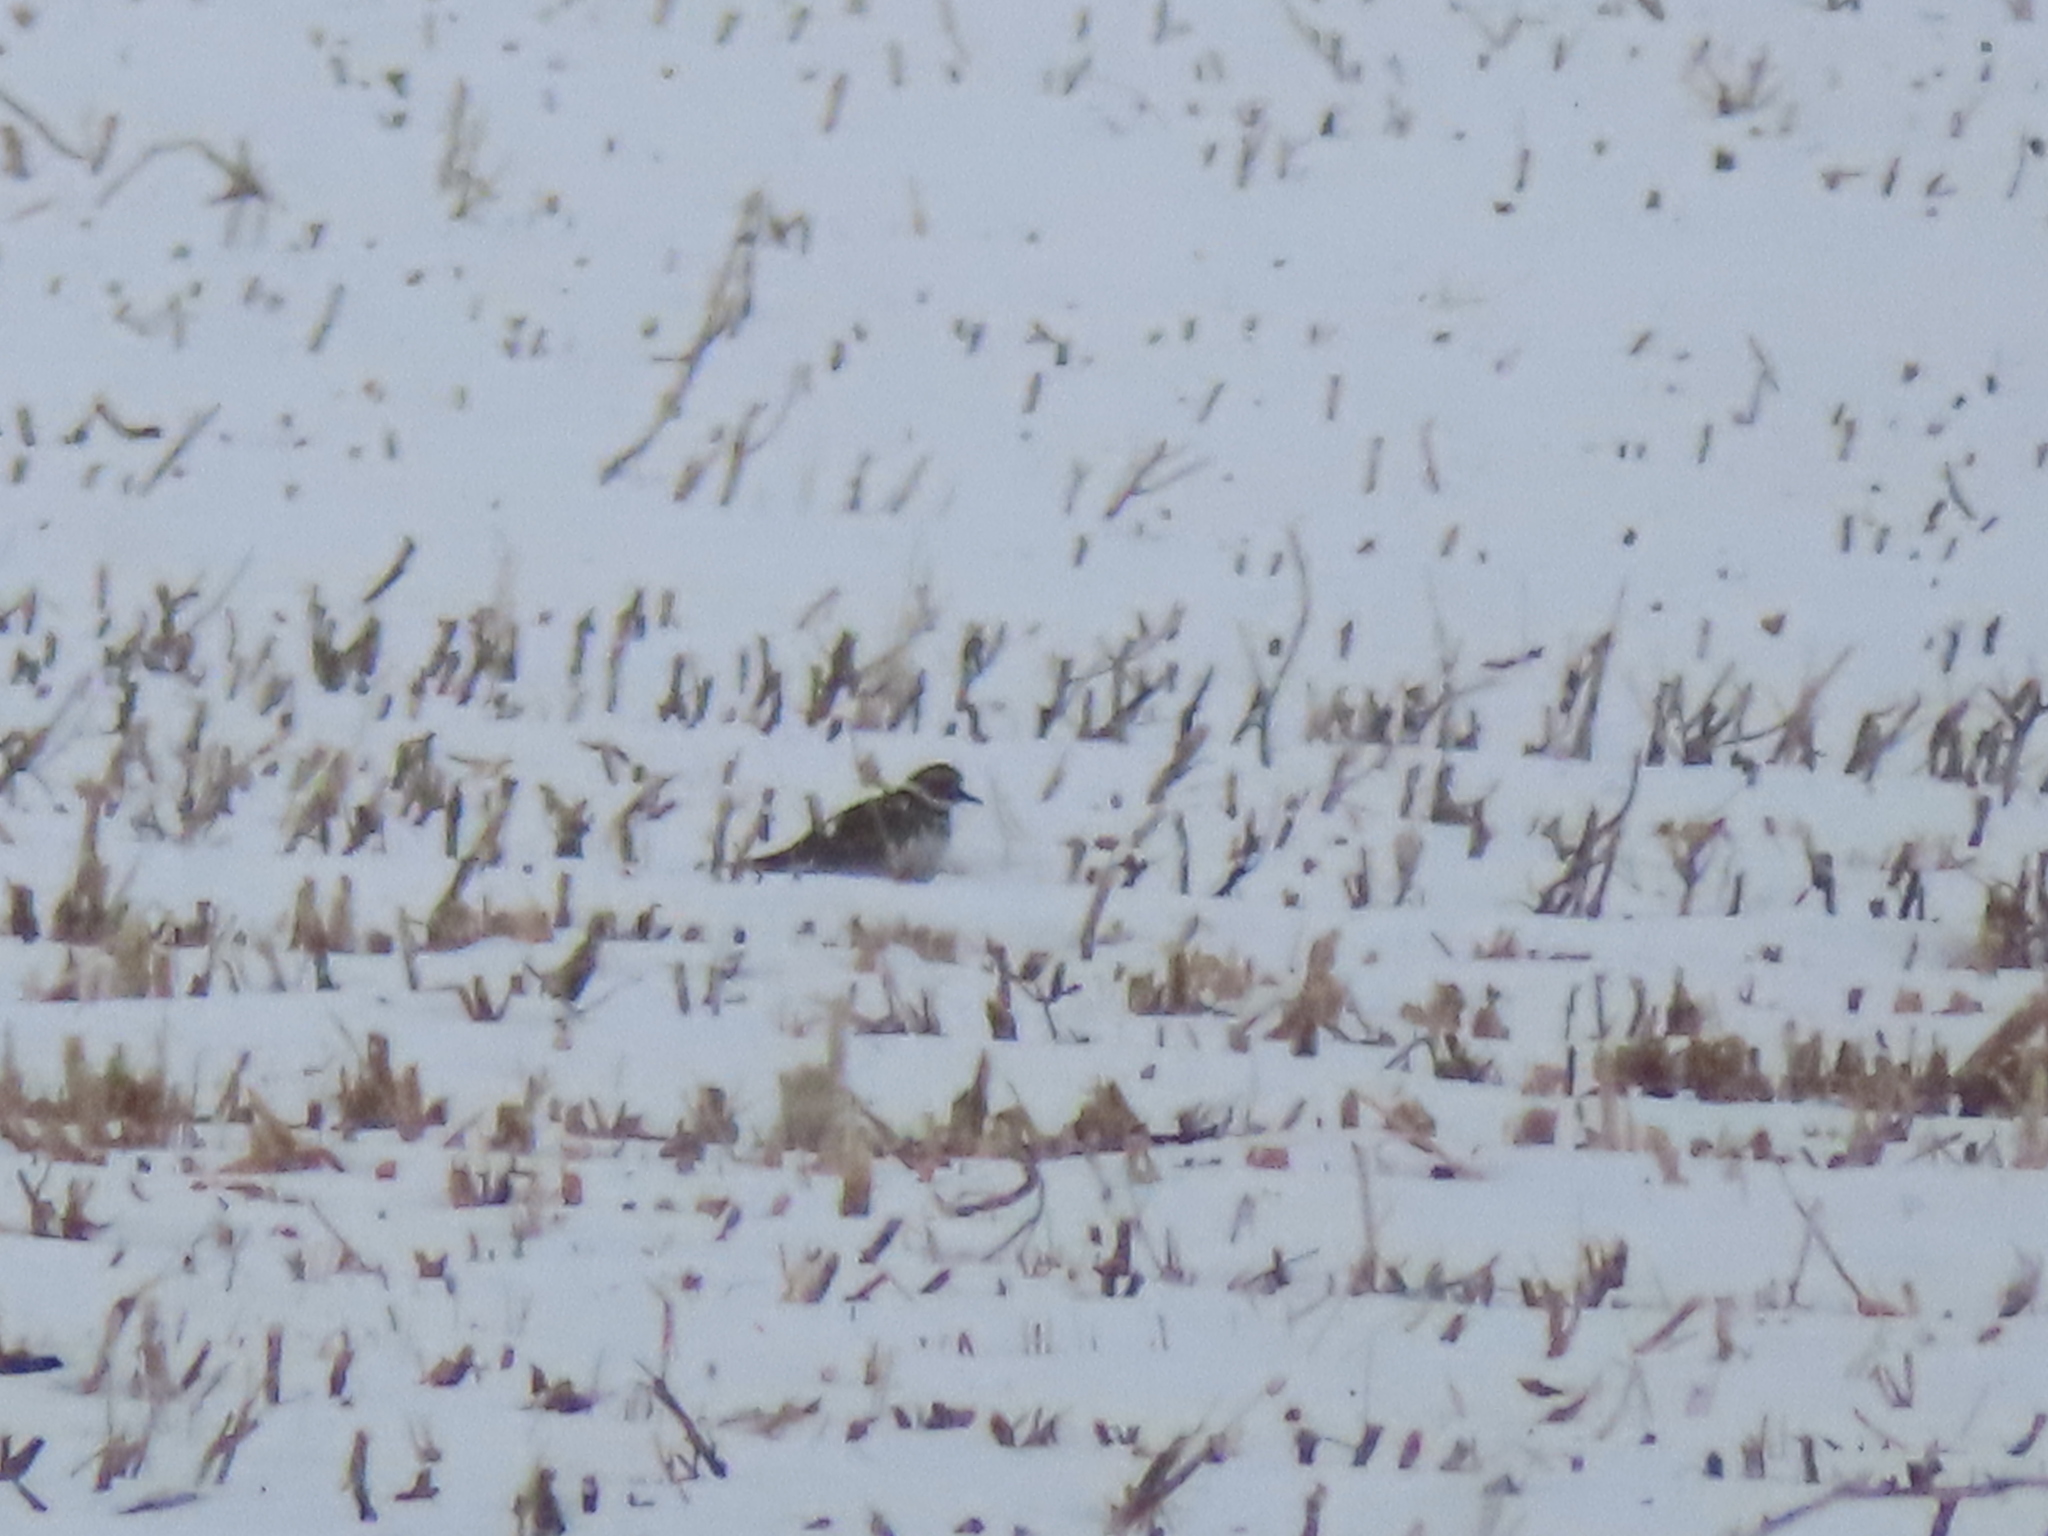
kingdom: Animalia
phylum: Chordata
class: Aves
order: Charadriiformes
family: Charadriidae
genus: Charadrius
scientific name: Charadrius vociferus
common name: Killdeer
